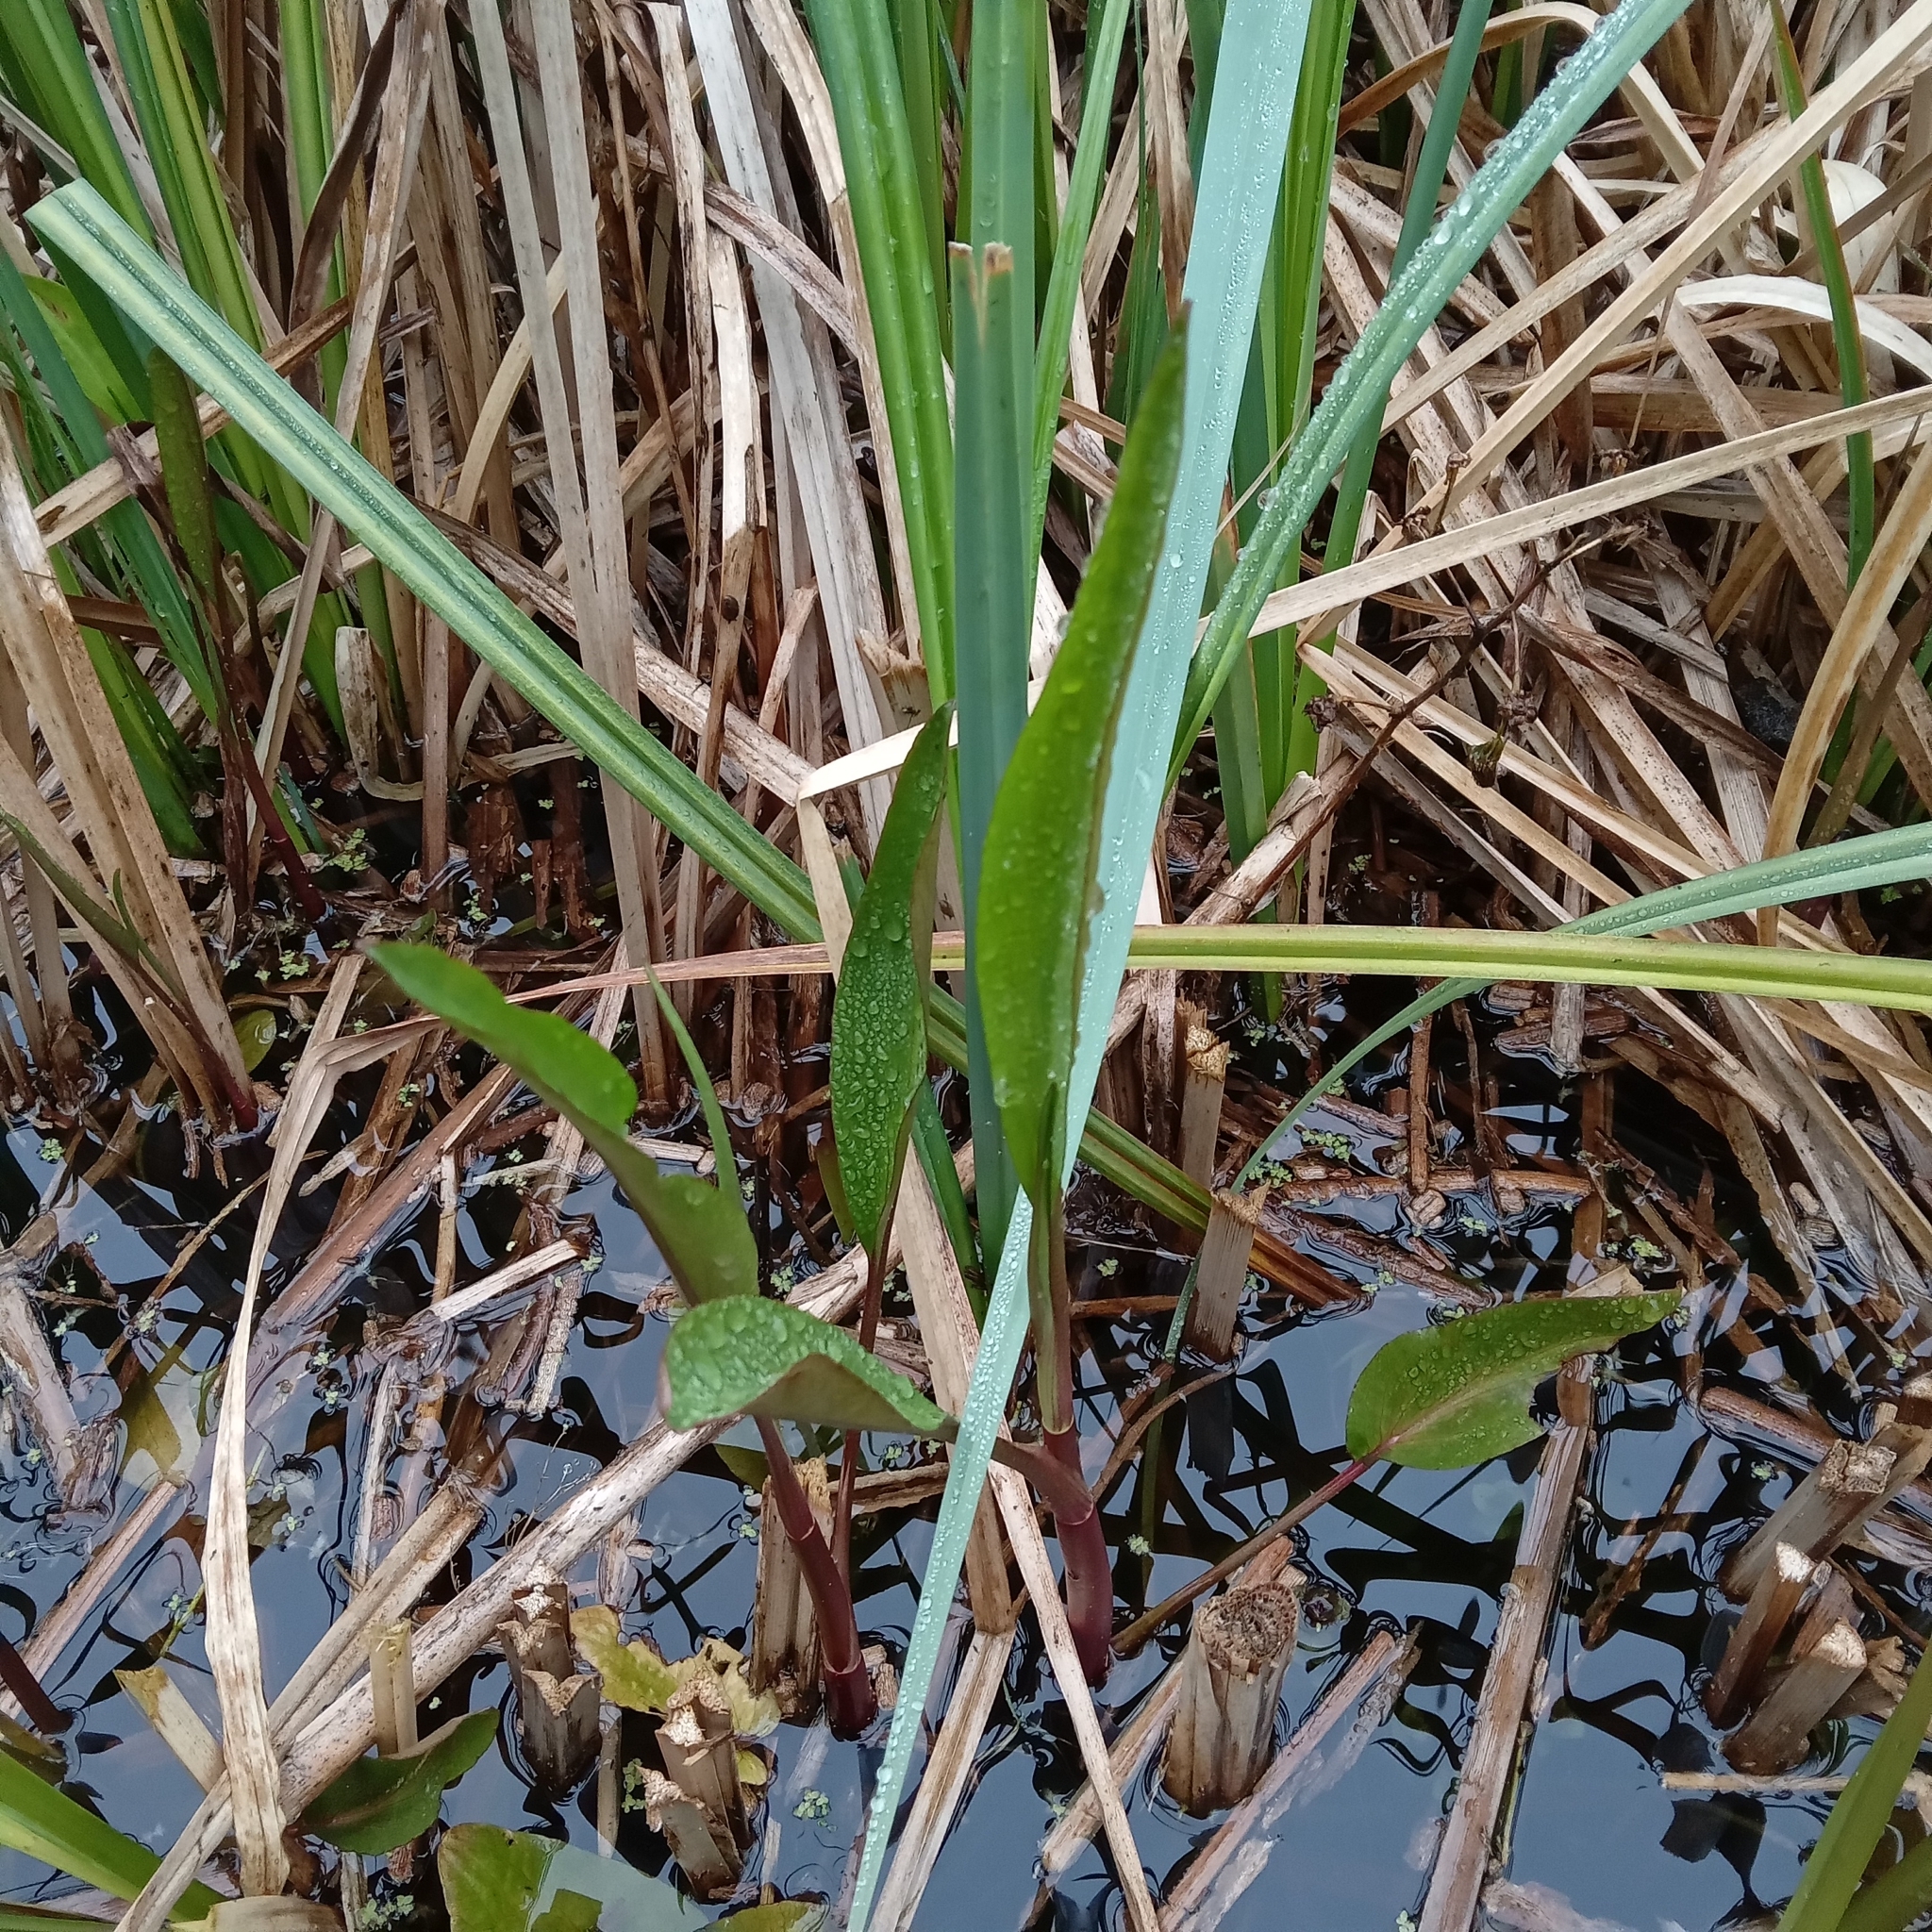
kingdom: Plantae
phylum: Tracheophyta
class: Liliopsida
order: Alismatales
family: Alismataceae
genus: Alisma
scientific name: Alisma plantago-aquatica
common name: Water-plantain
